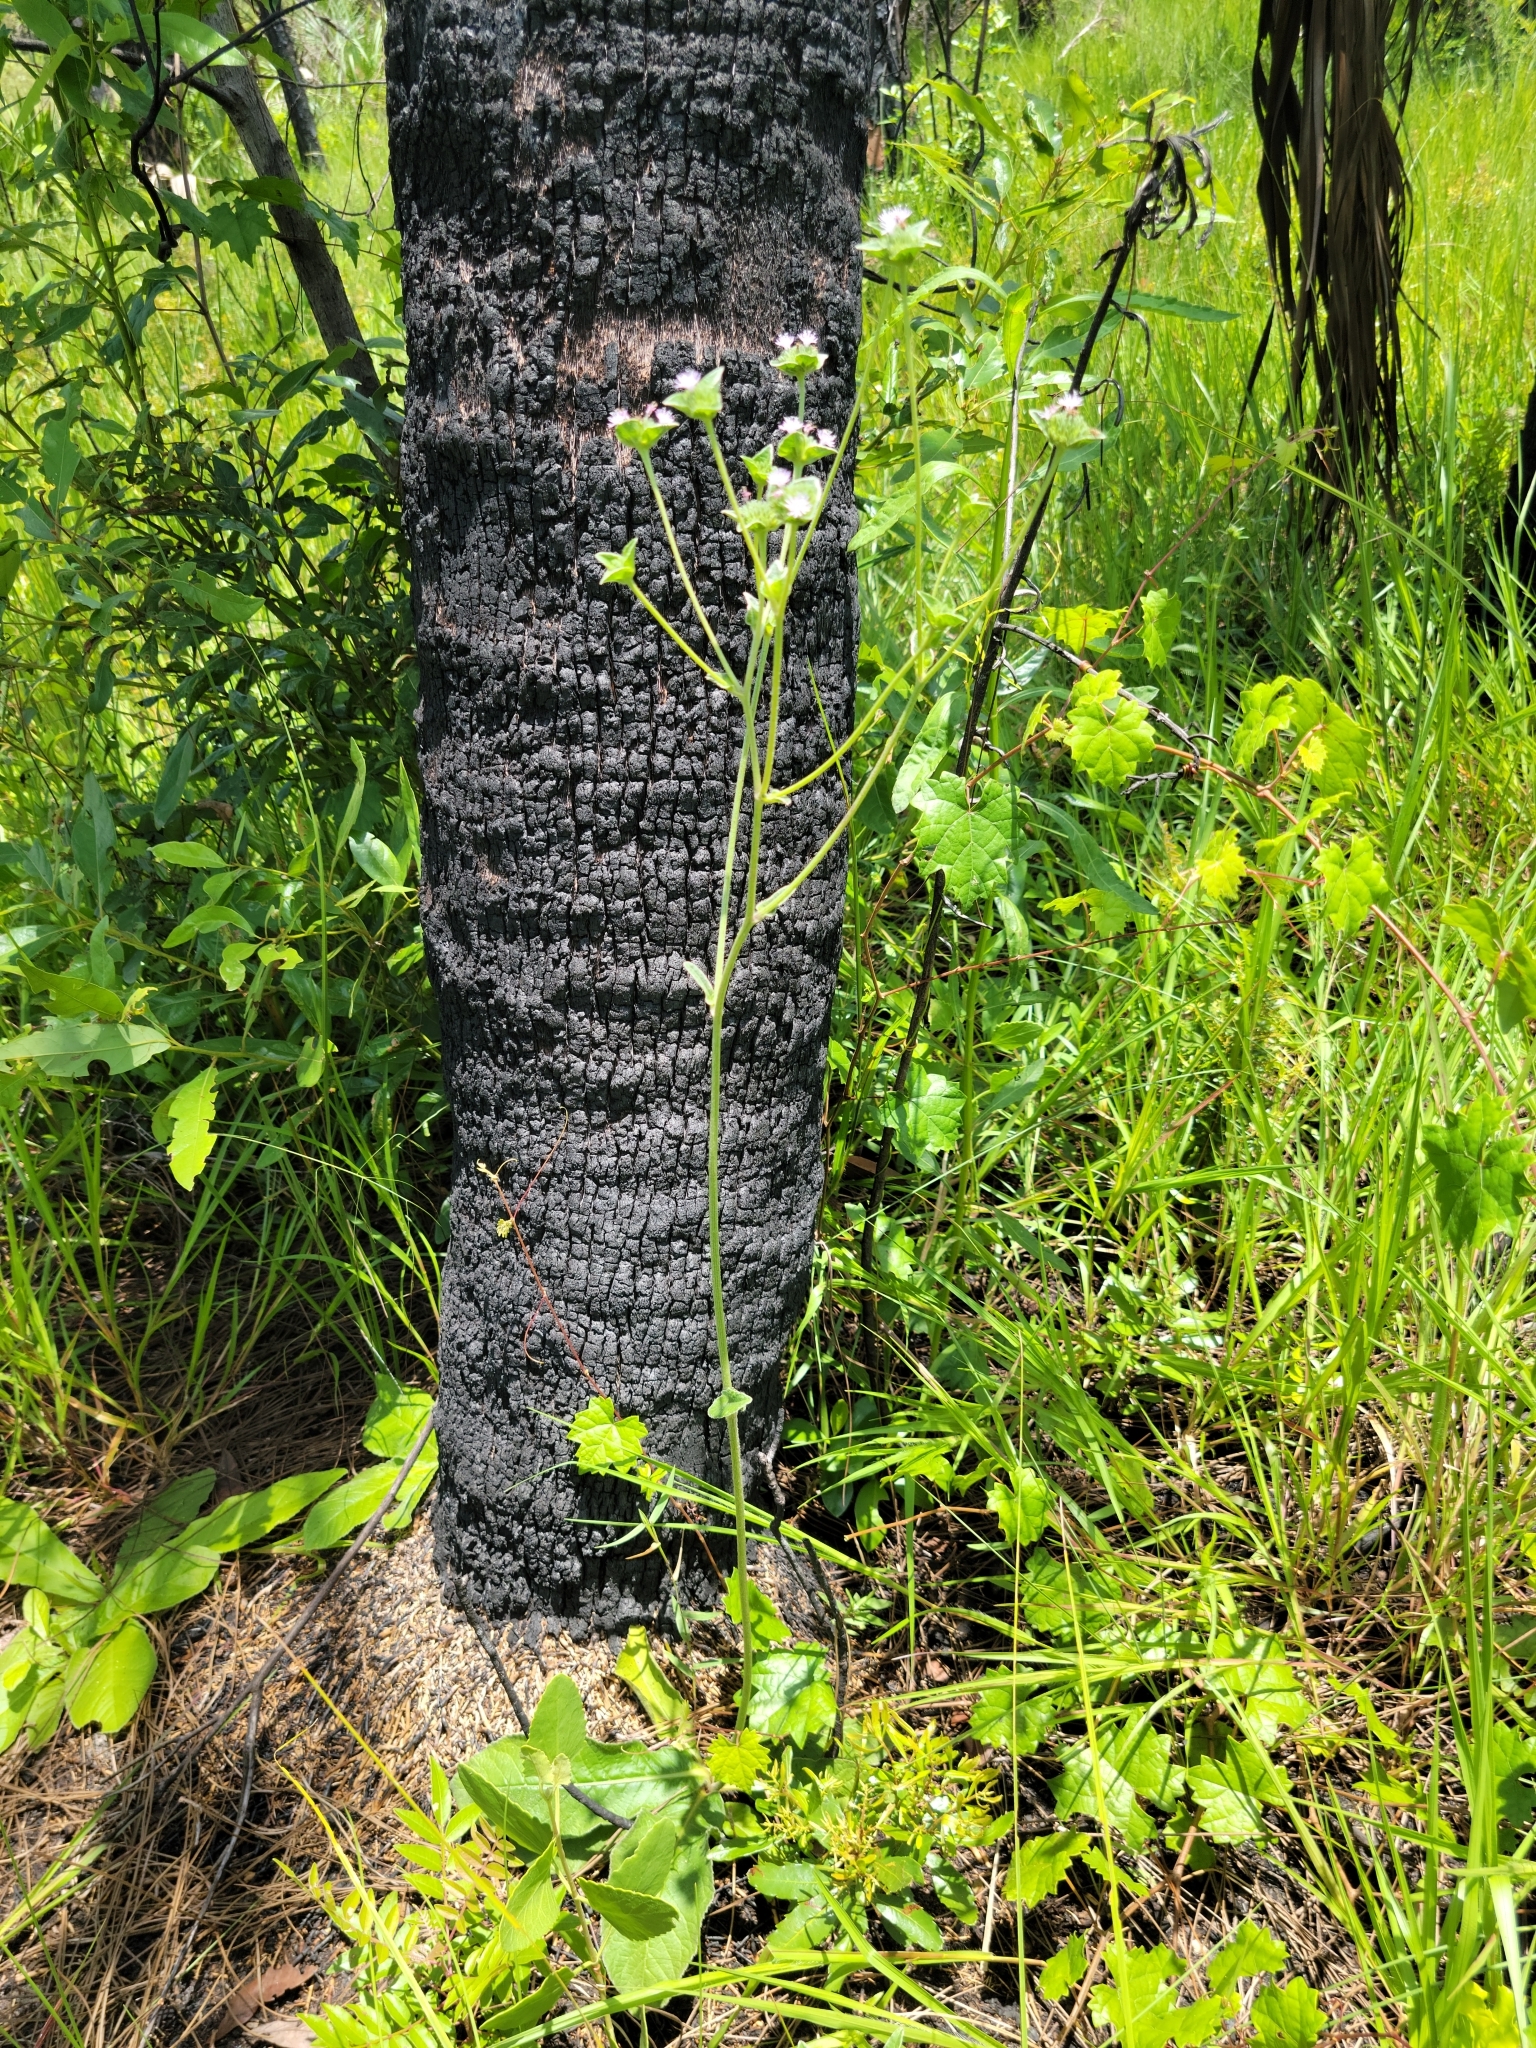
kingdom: Plantae
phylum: Tracheophyta
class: Magnoliopsida
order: Asterales
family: Asteraceae
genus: Elephantopus
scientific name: Elephantopus elatus
